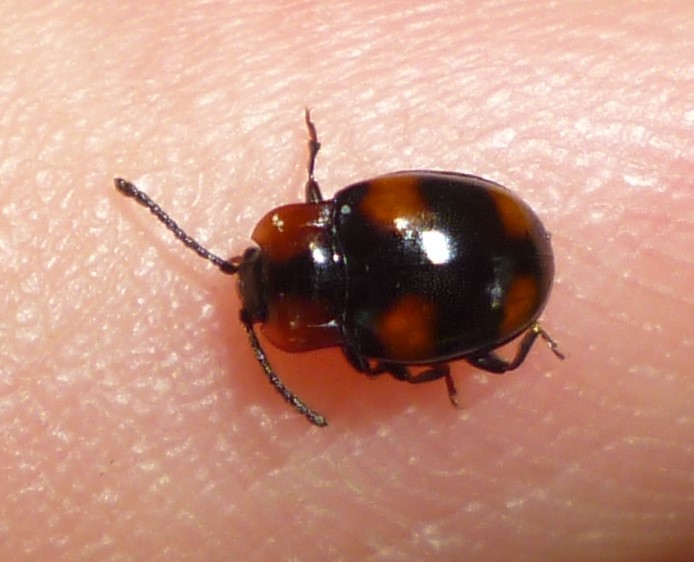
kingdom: Animalia
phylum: Arthropoda
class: Insecta
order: Coleoptera
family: Endomychidae
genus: Mycetina
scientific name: Mycetina perpulchra
